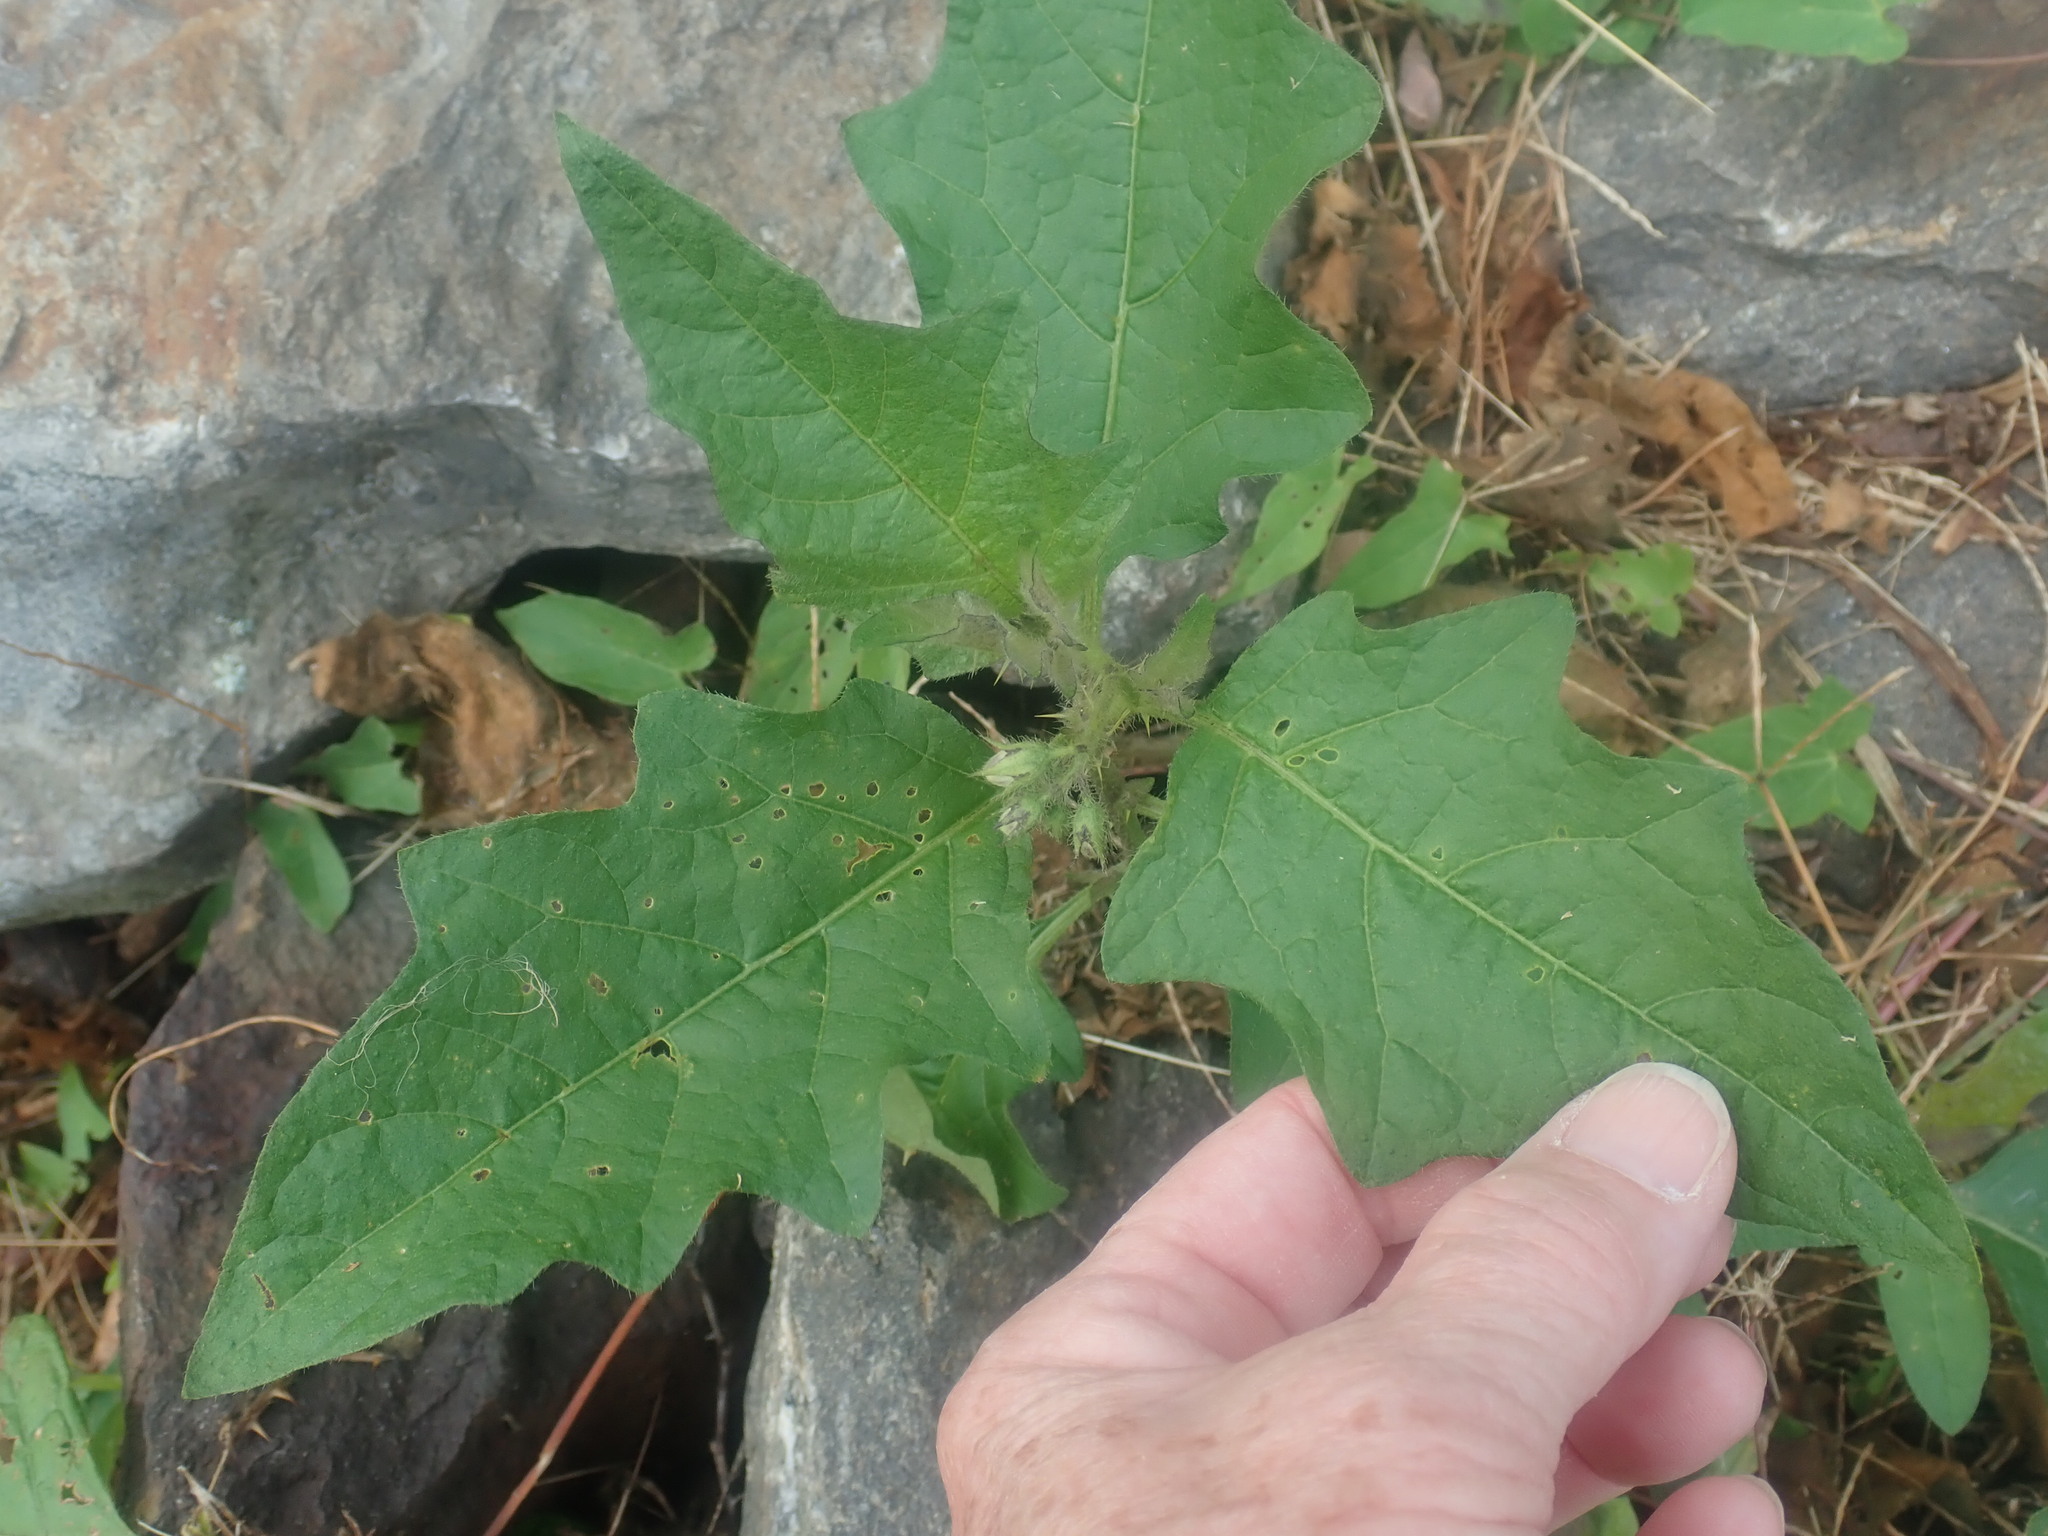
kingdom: Plantae
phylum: Tracheophyta
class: Magnoliopsida
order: Solanales
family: Solanaceae
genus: Solanum
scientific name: Solanum carolinense
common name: Horse-nettle
